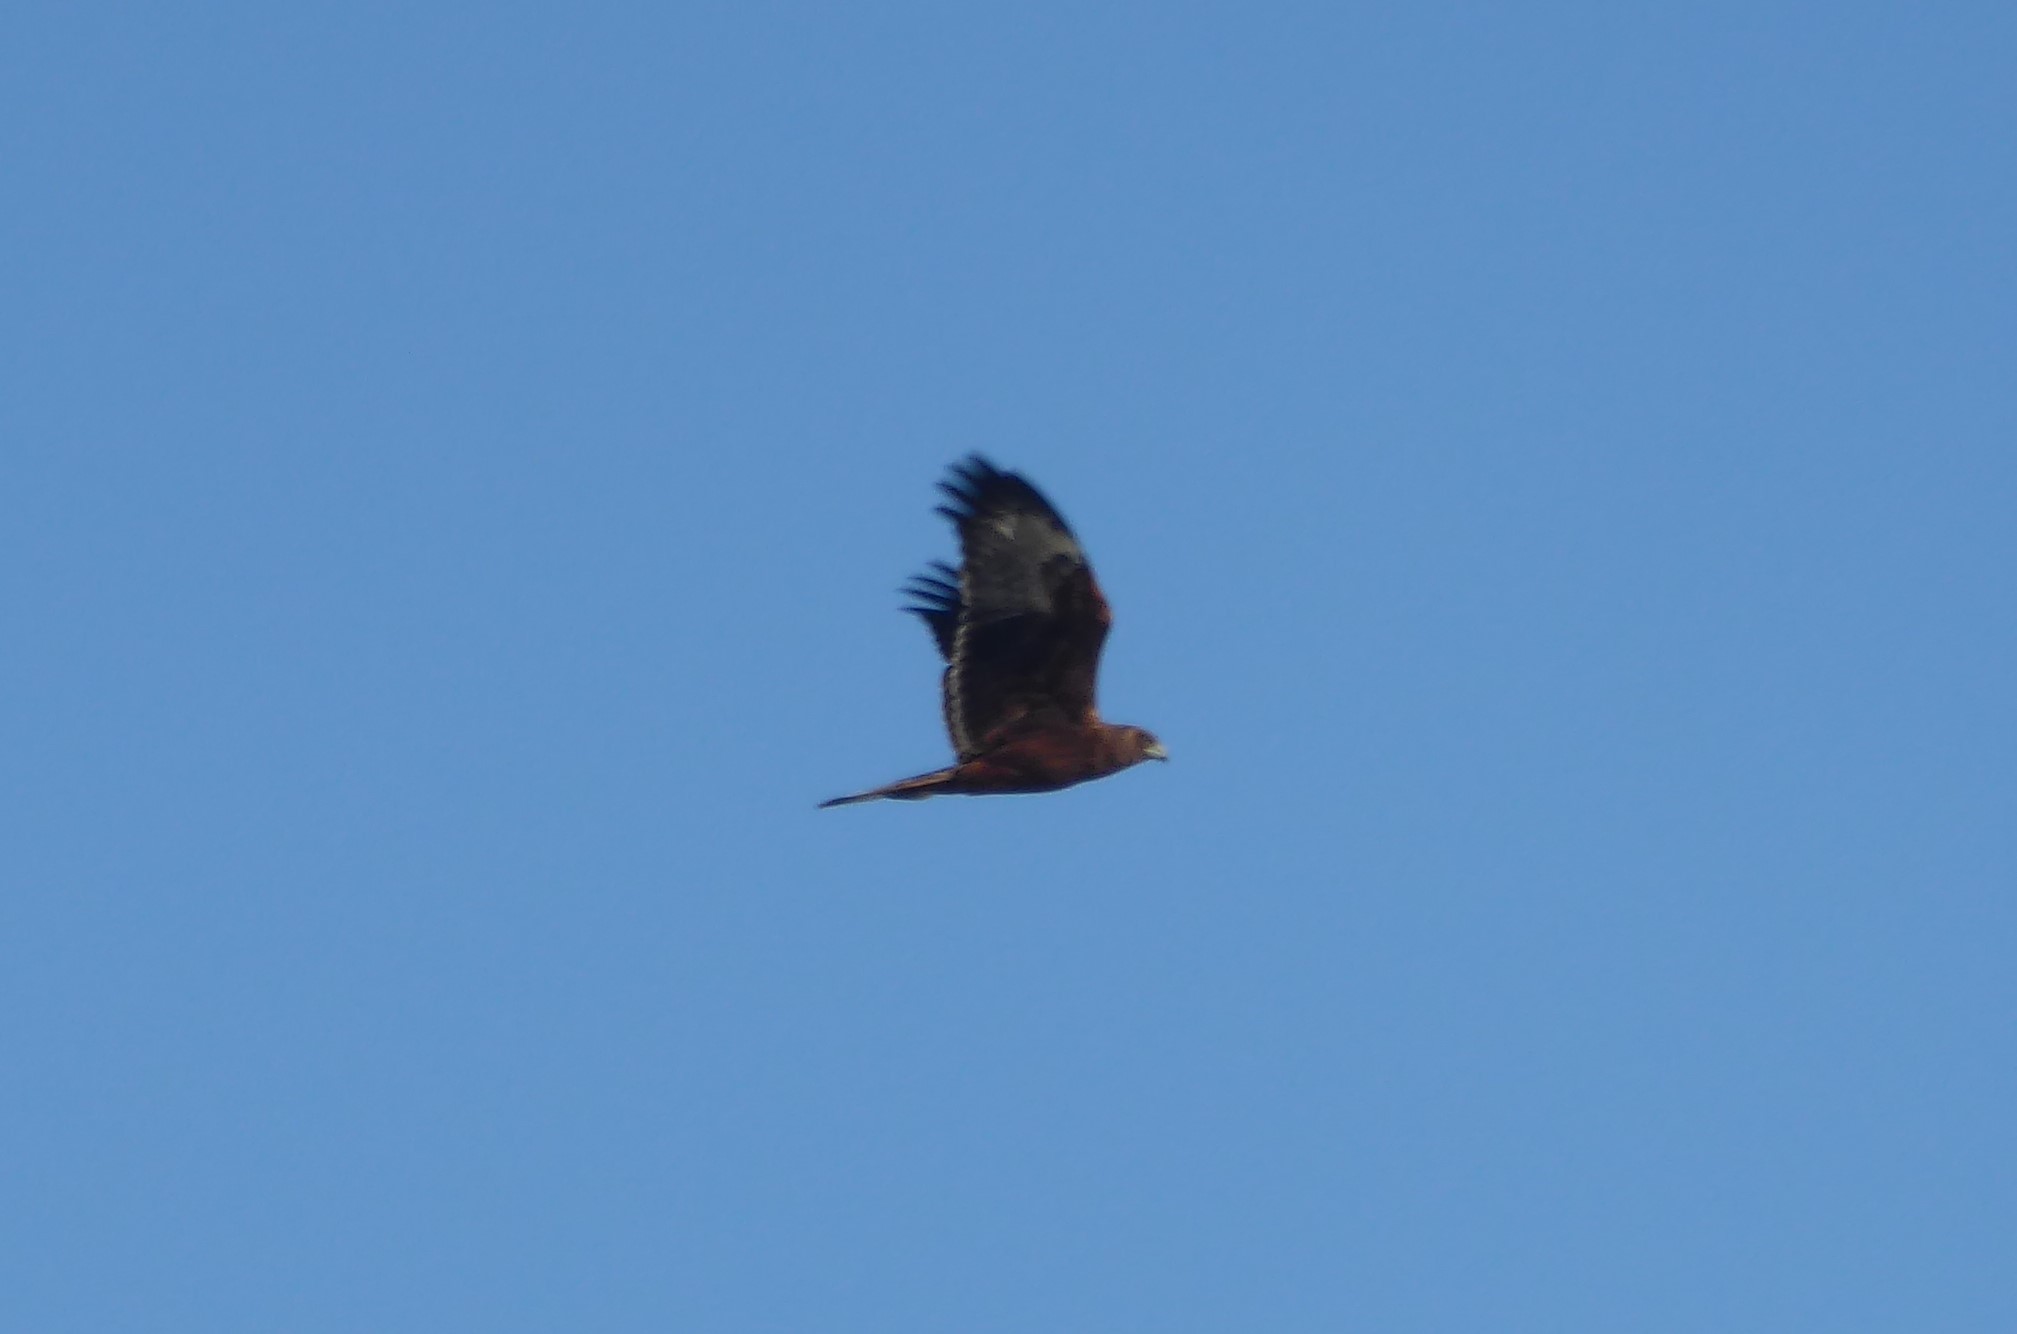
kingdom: Animalia
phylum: Chordata
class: Aves
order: Accipitriformes
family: Accipitridae
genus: Circus
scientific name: Circus approximans
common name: Swamp harrier
